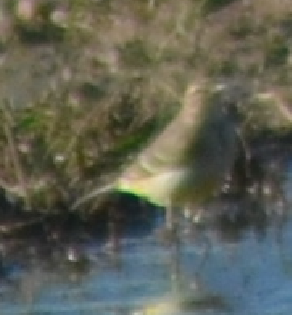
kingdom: Animalia
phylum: Chordata
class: Aves
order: Passeriformes
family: Motacillidae
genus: Motacilla
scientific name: Motacilla flava
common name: Western yellow wagtail
